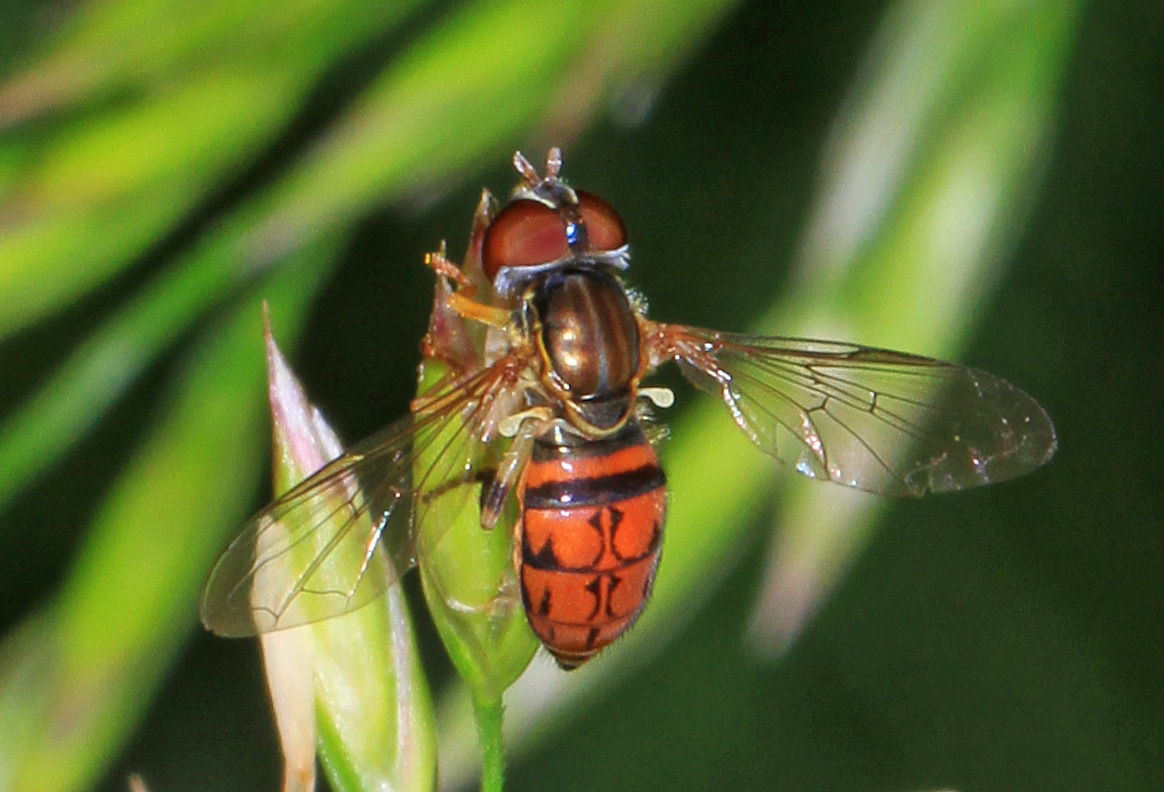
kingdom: Animalia
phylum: Arthropoda
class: Insecta
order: Diptera
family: Syrphidae
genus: Toxomerus
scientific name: Toxomerus boscii
